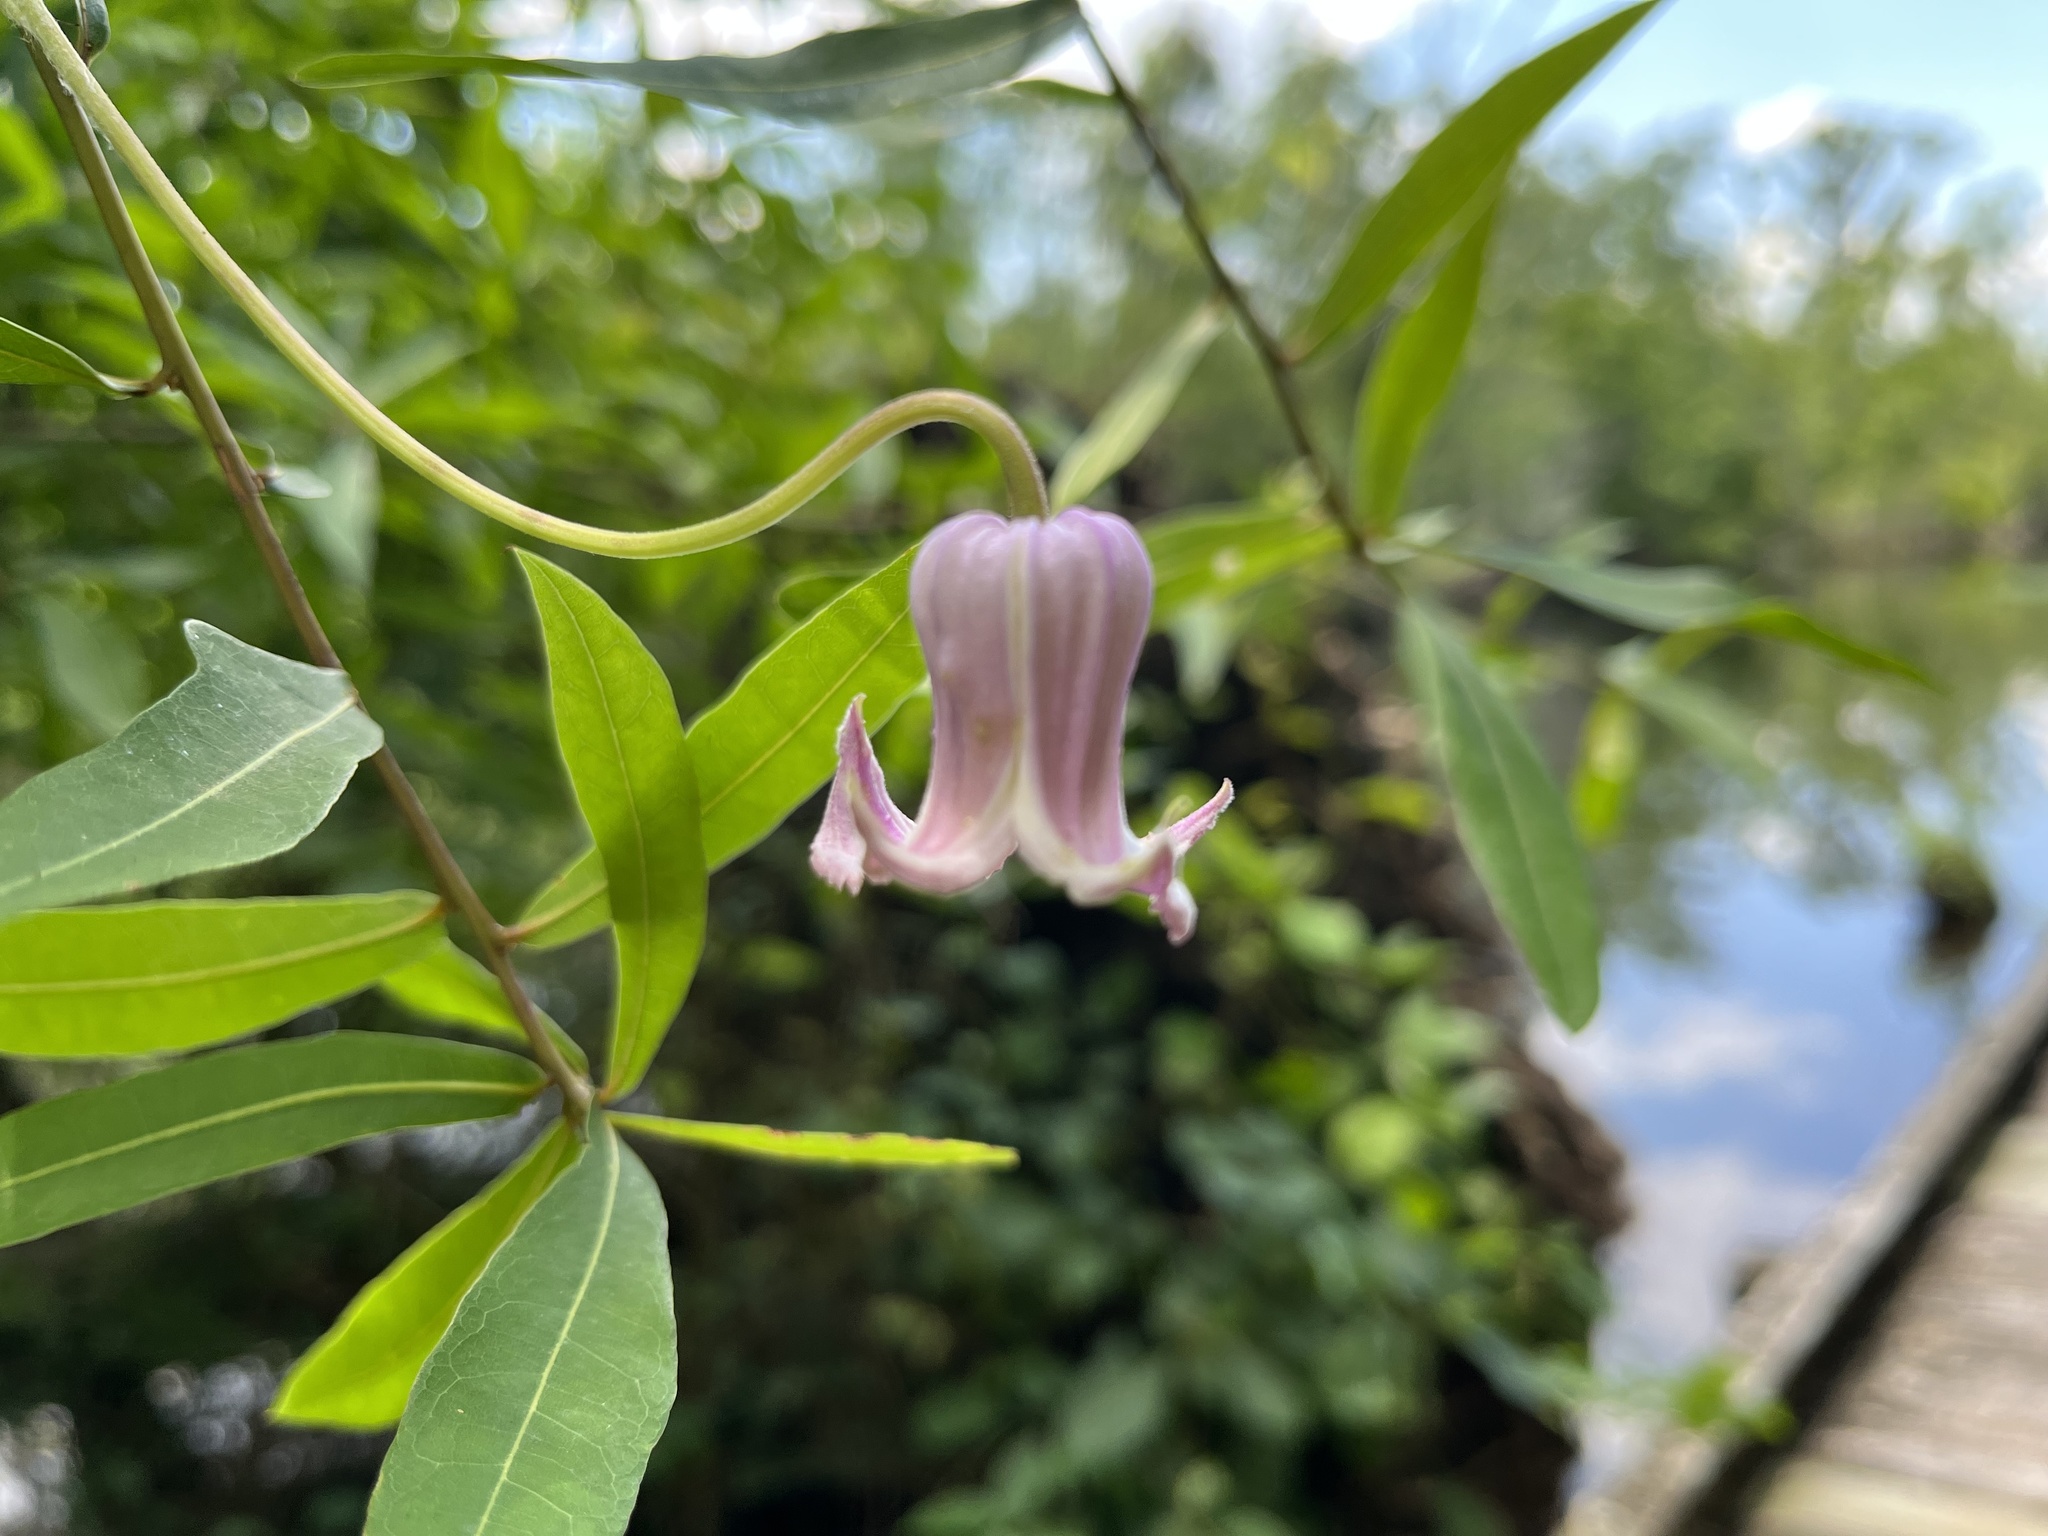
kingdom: Plantae
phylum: Tracheophyta
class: Magnoliopsida
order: Ranunculales
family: Ranunculaceae
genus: Clematis
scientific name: Clematis crispa
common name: Curly clematis
